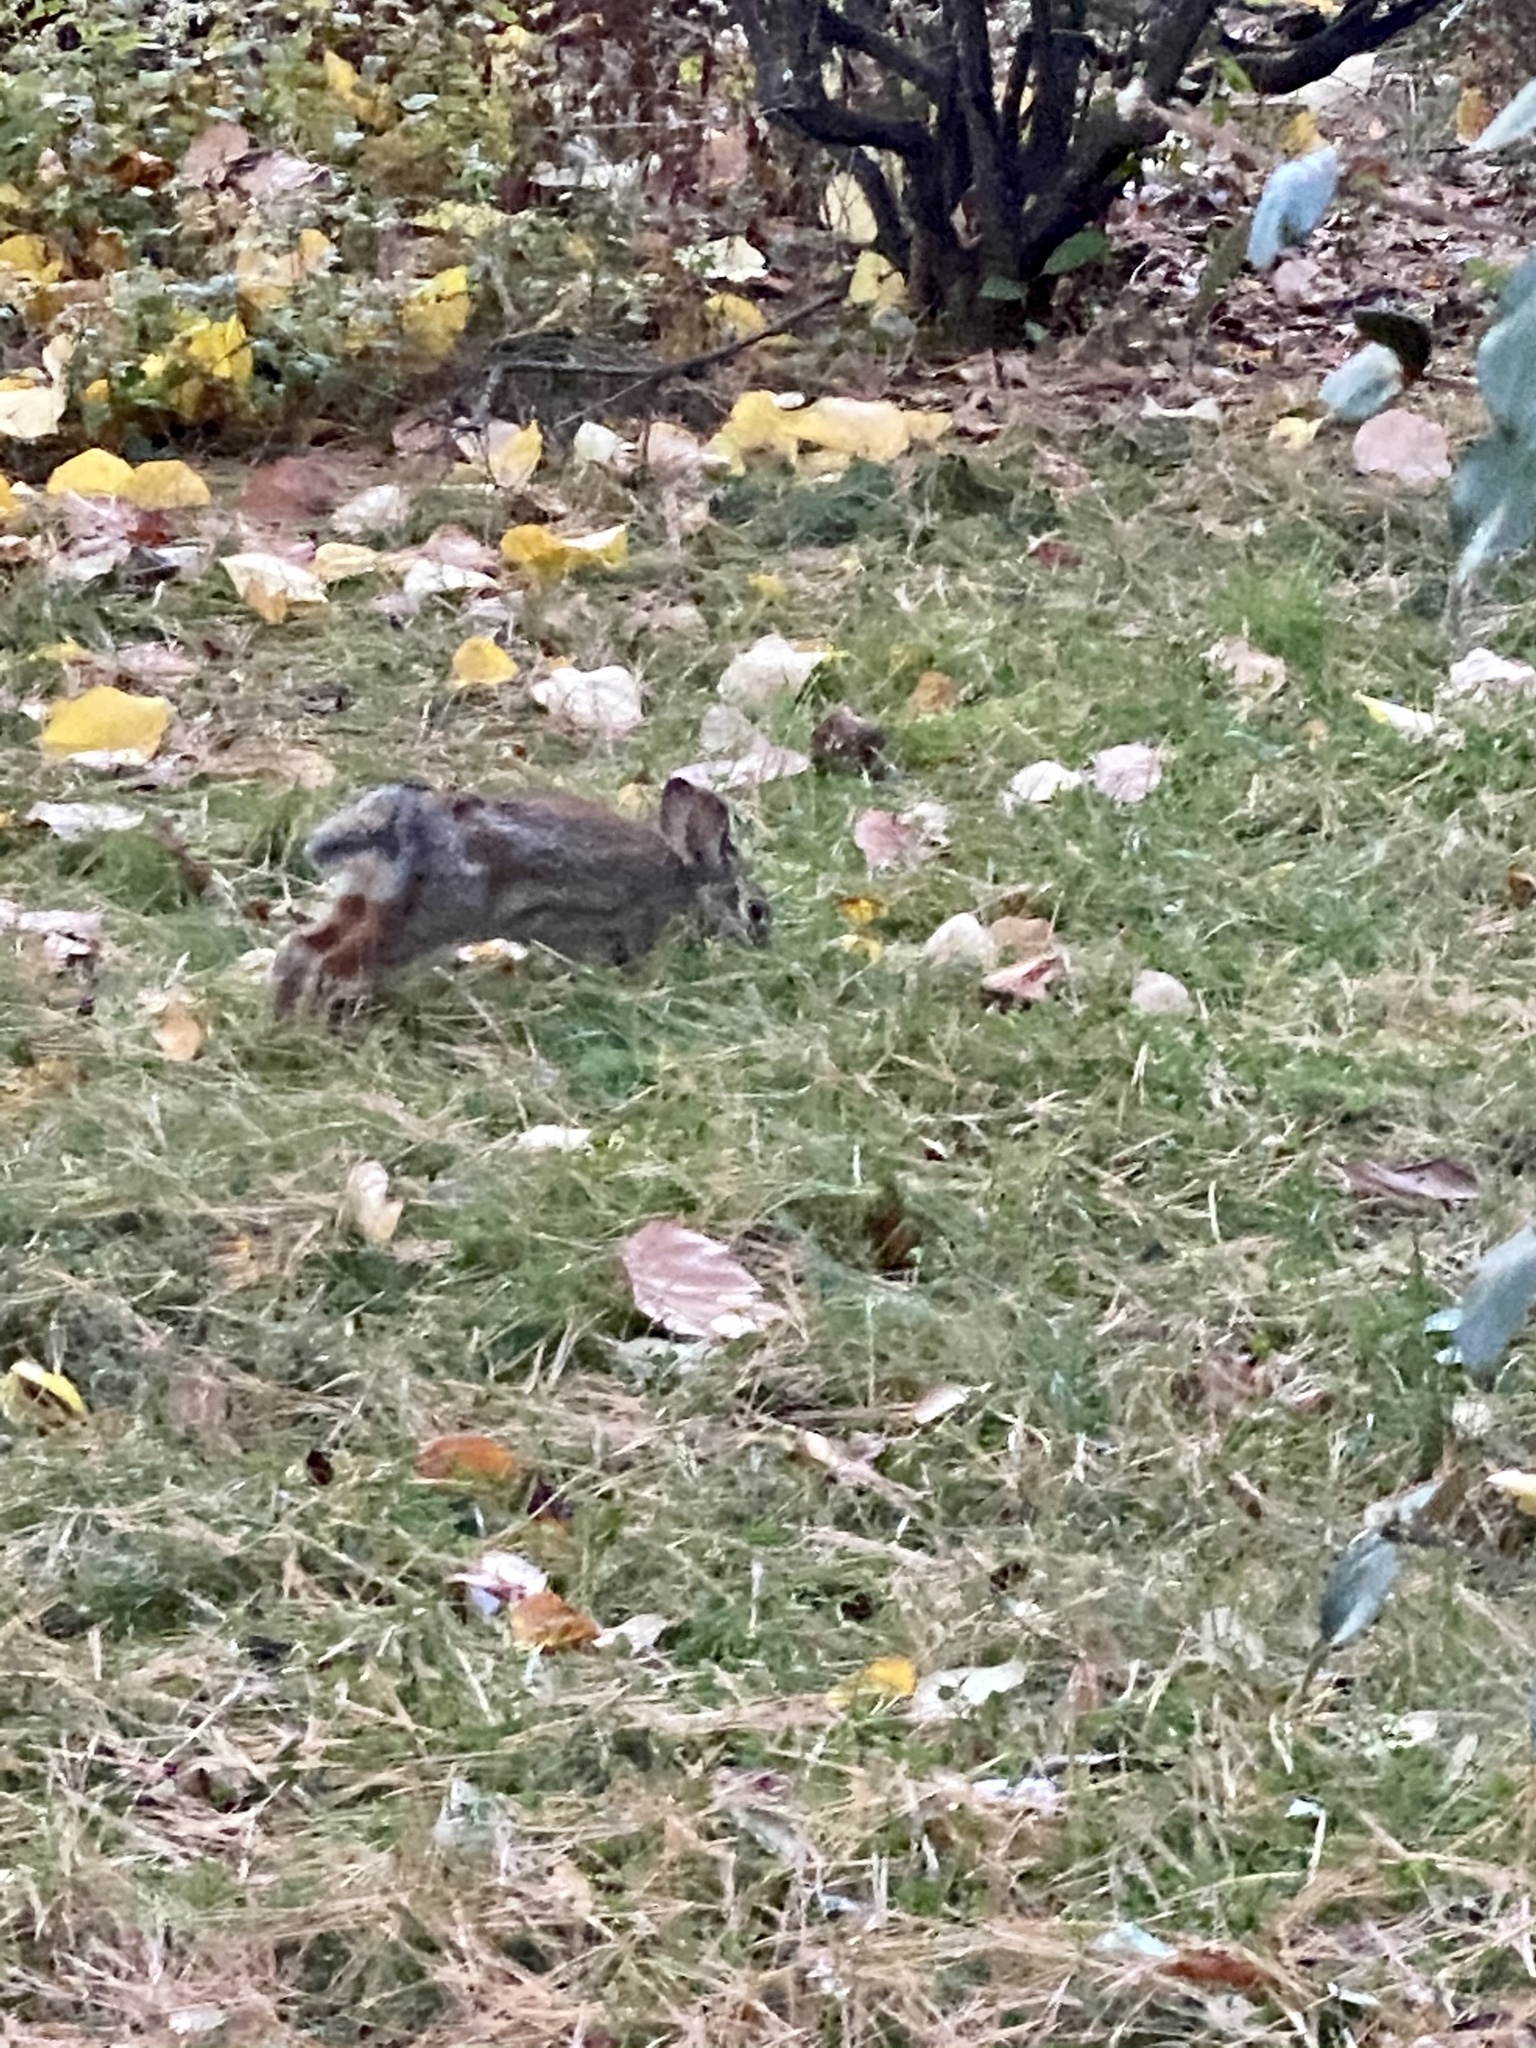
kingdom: Animalia
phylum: Chordata
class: Mammalia
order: Lagomorpha
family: Leporidae
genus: Sylvilagus
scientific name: Sylvilagus floridanus
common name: Eastern cottontail
